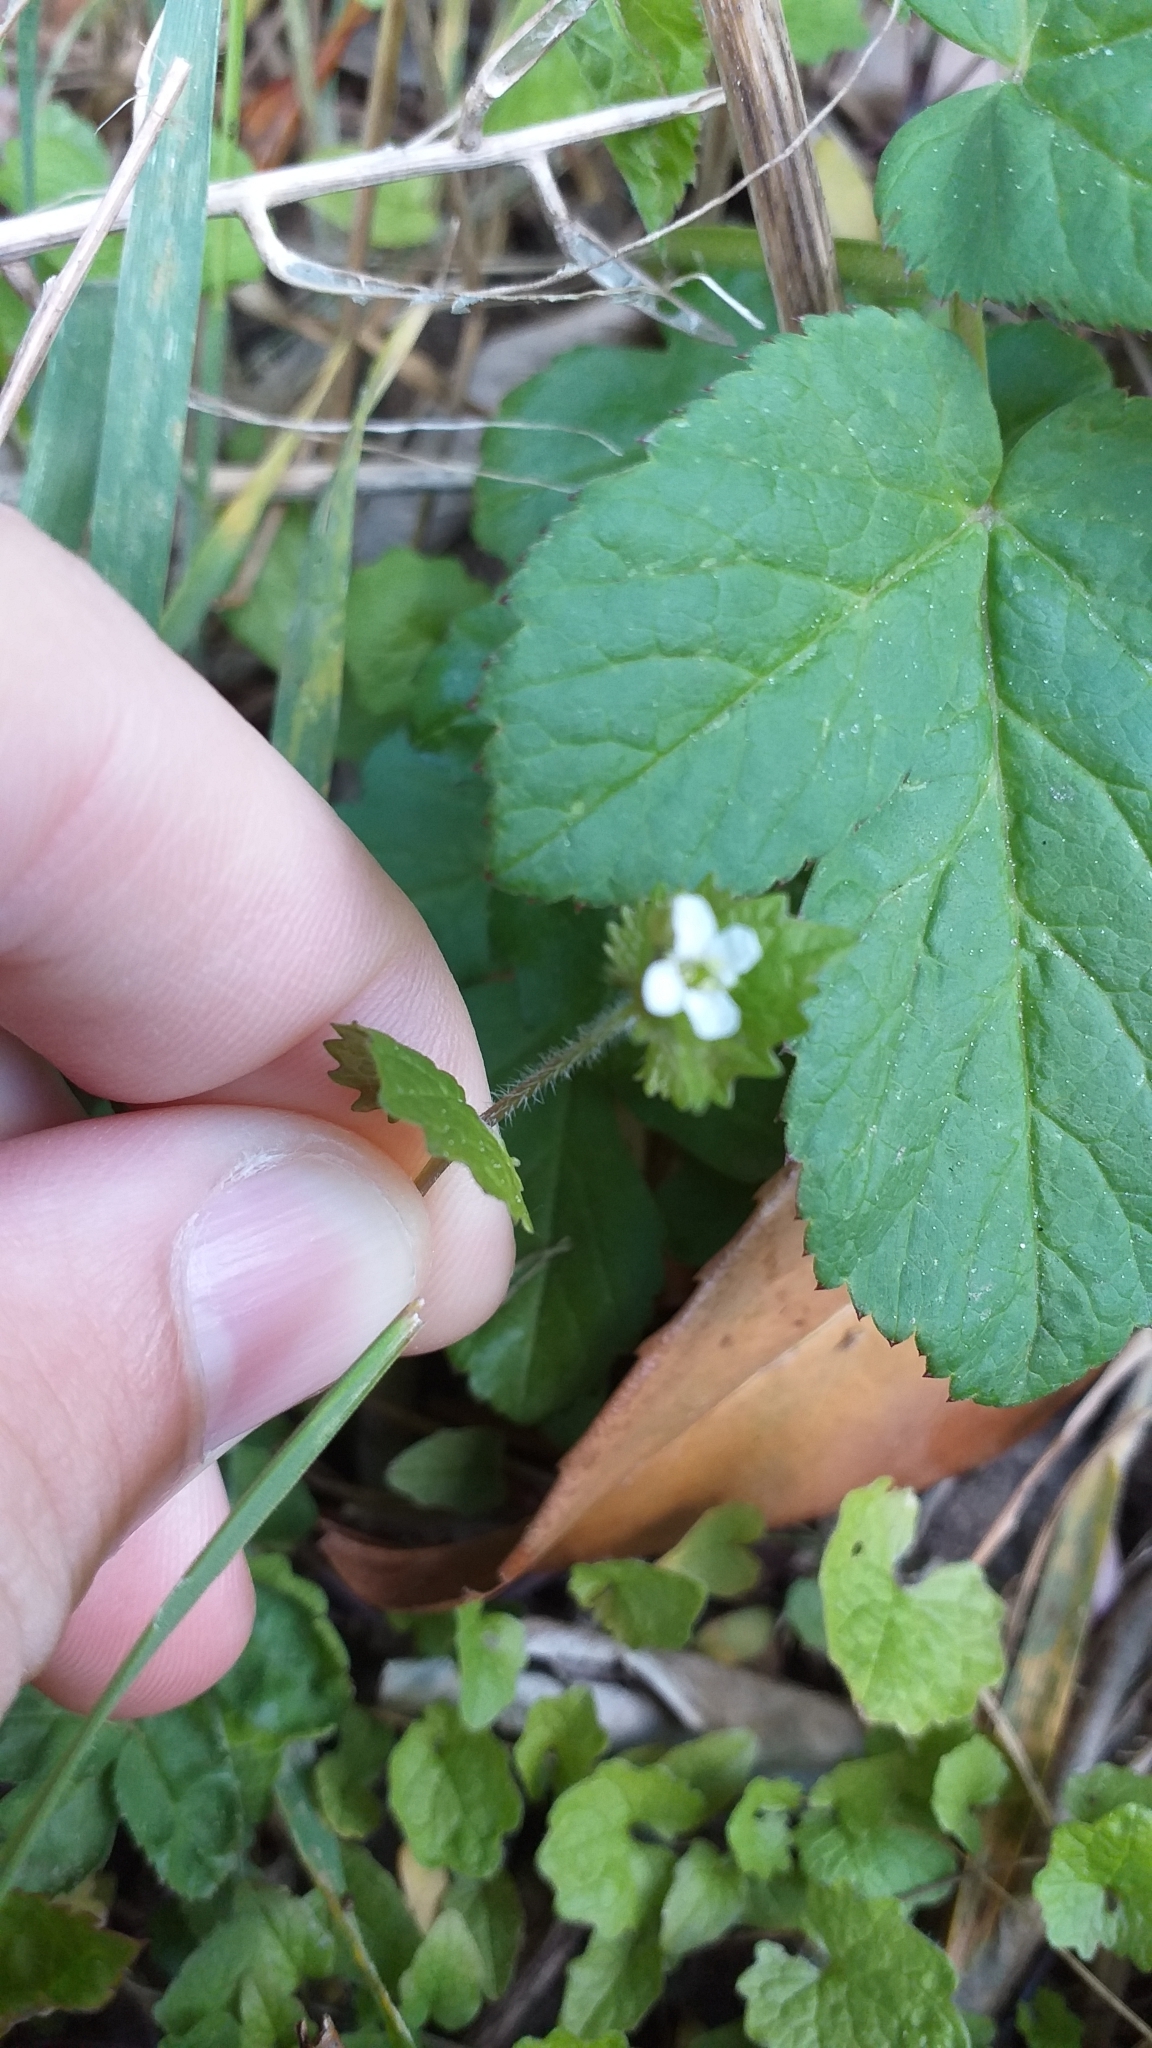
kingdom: Plantae
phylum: Tracheophyta
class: Magnoliopsida
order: Brassicales
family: Brassicaceae
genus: Alliaria
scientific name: Alliaria petiolata
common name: Garlic mustard
